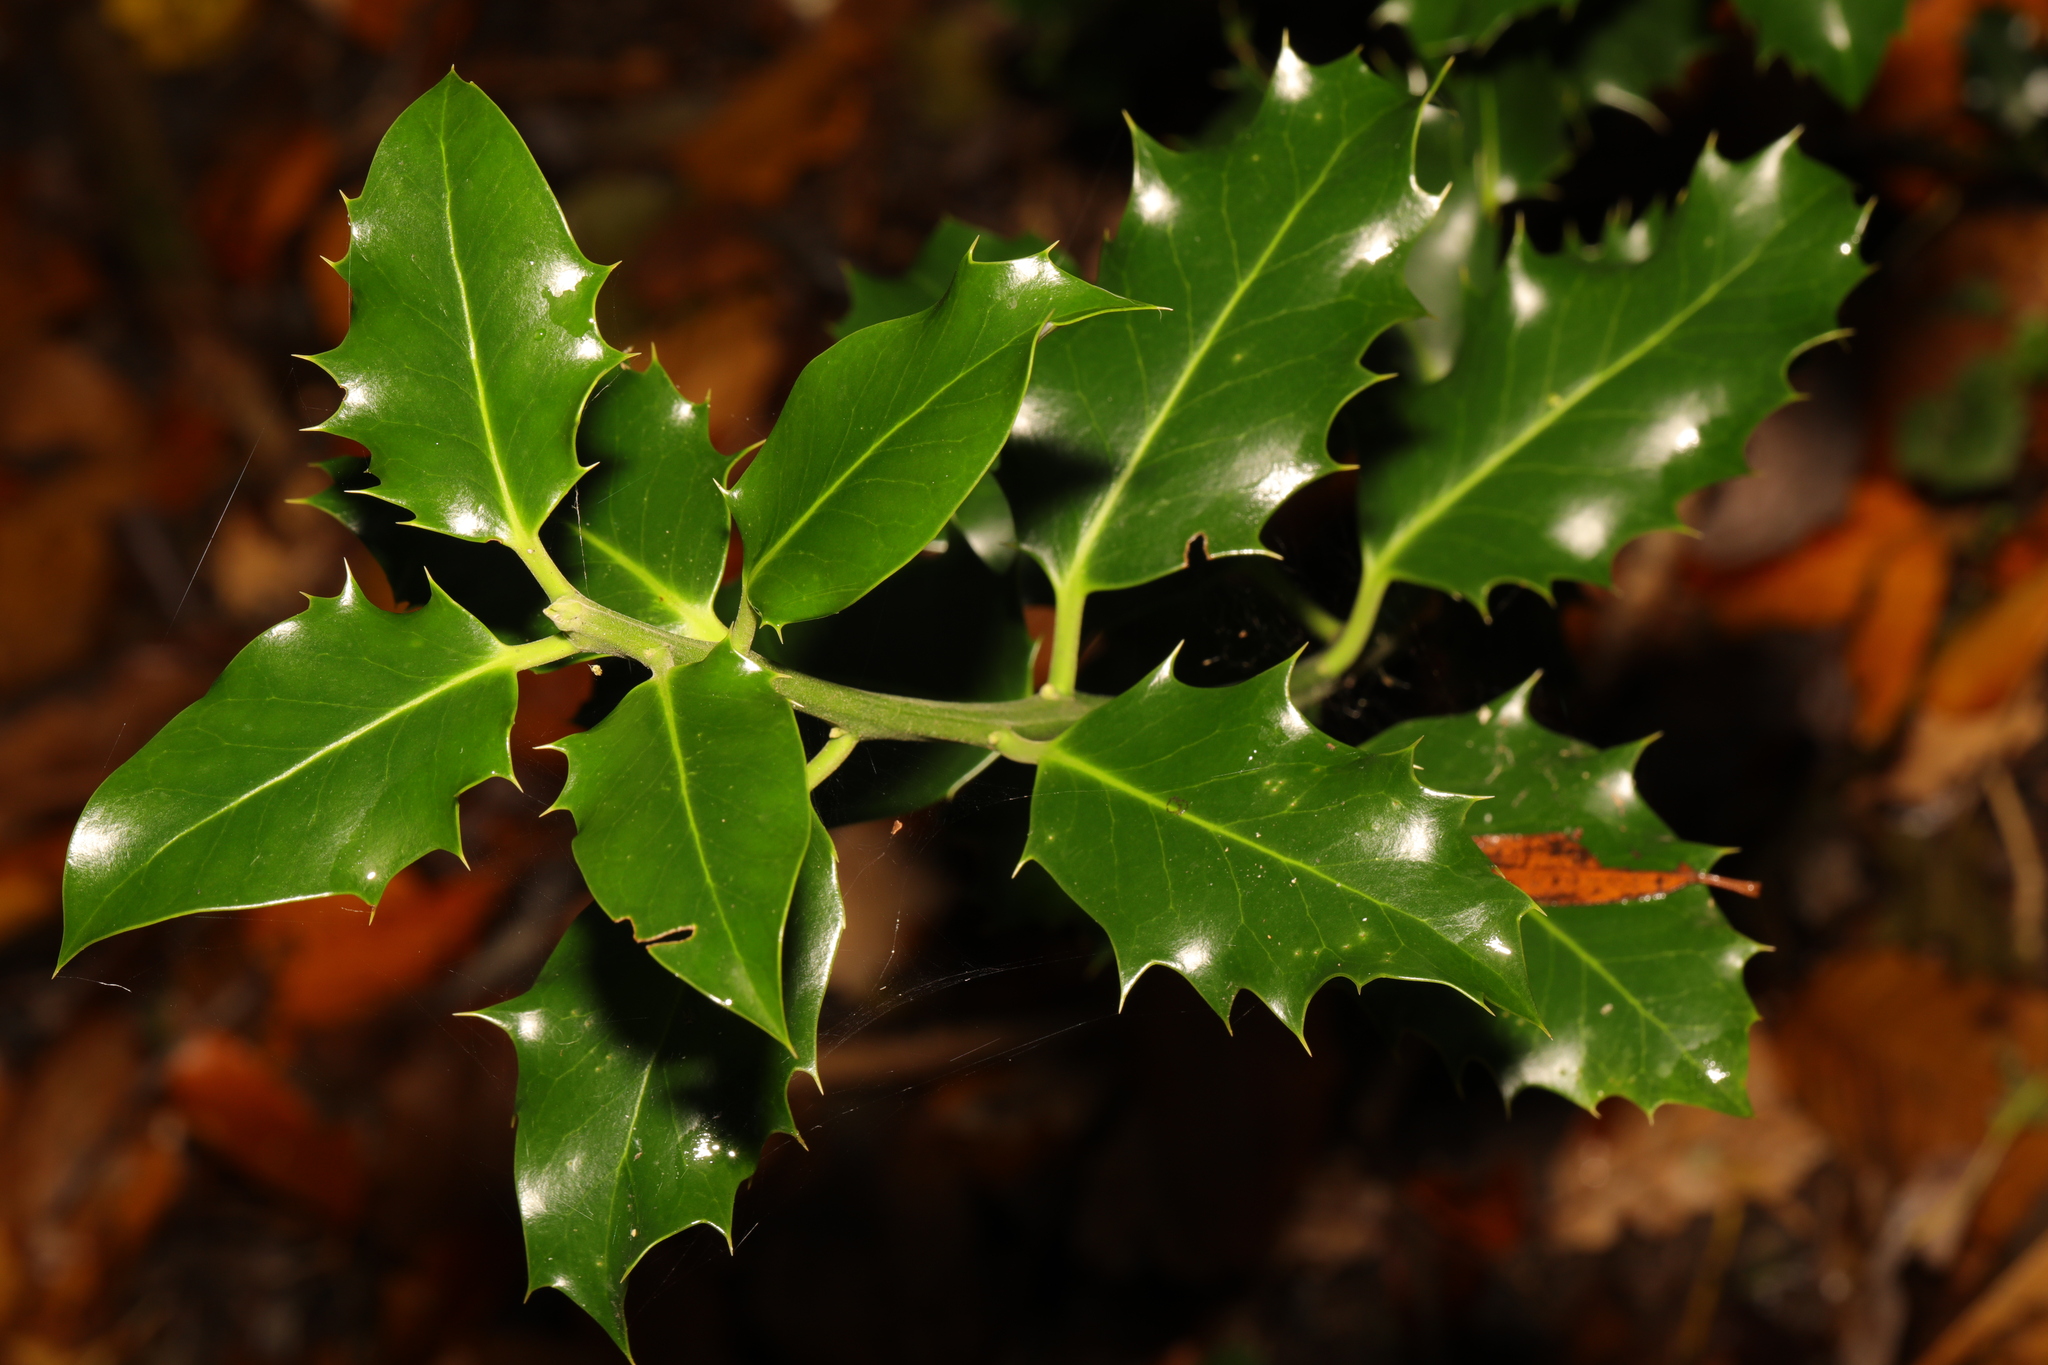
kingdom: Plantae
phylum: Tracheophyta
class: Magnoliopsida
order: Aquifoliales
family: Aquifoliaceae
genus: Ilex
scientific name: Ilex aquifolium
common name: English holly
